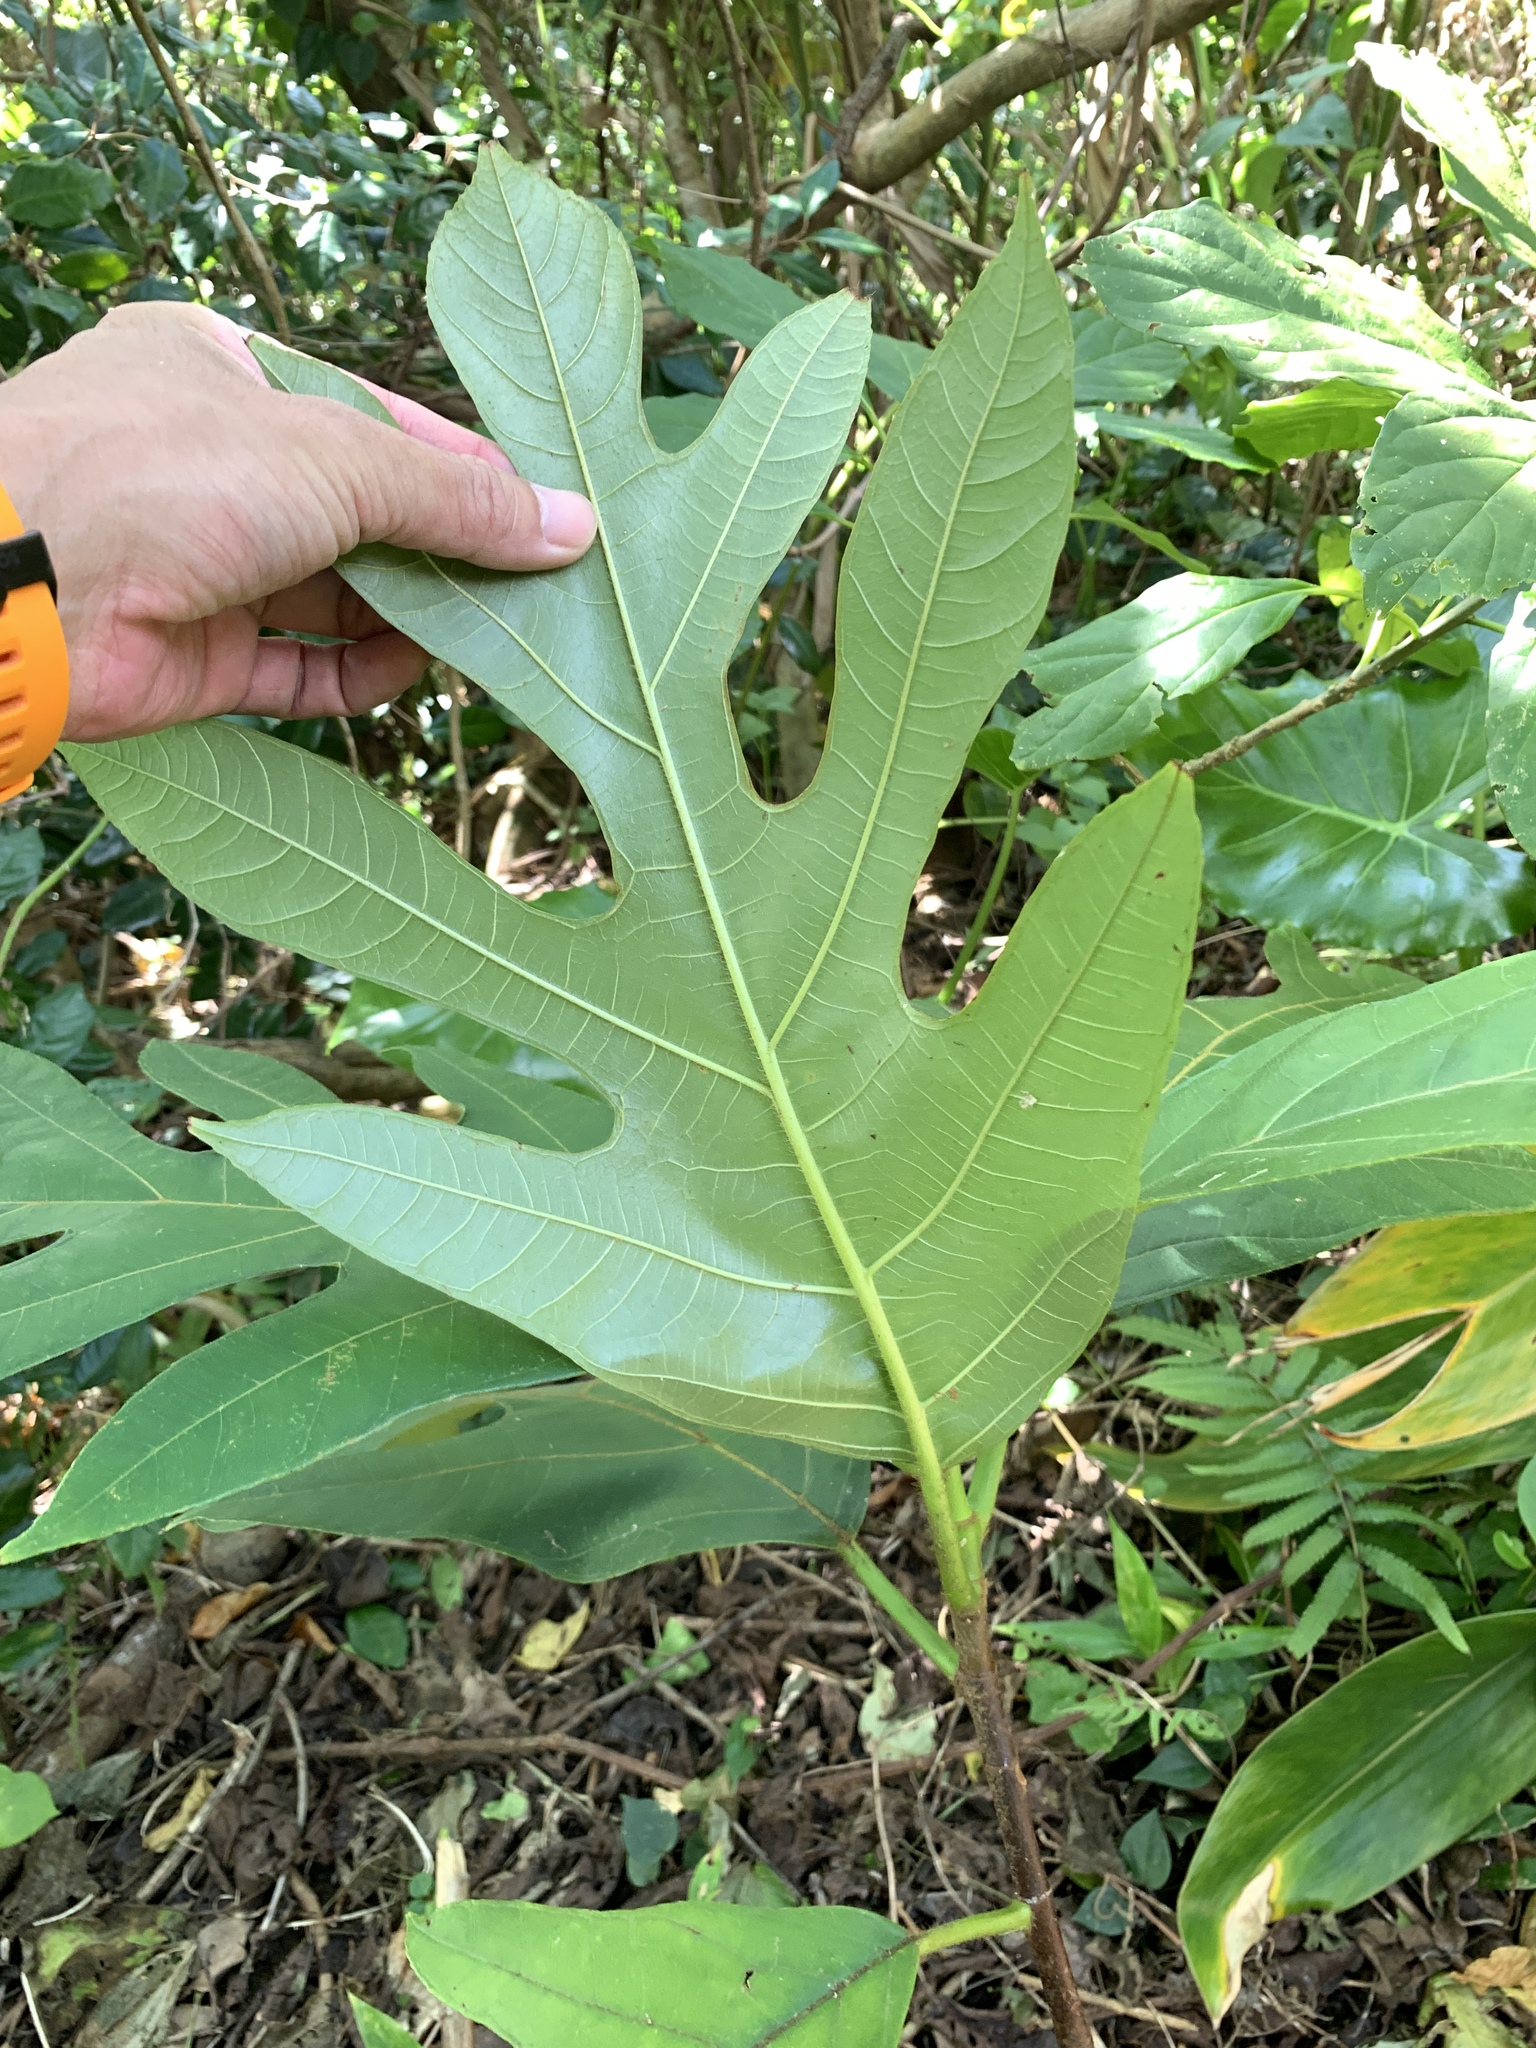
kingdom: Plantae
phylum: Tracheophyta
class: Magnoliopsida
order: Rosales
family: Moraceae
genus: Artocarpus
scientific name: Artocarpus treculianus
